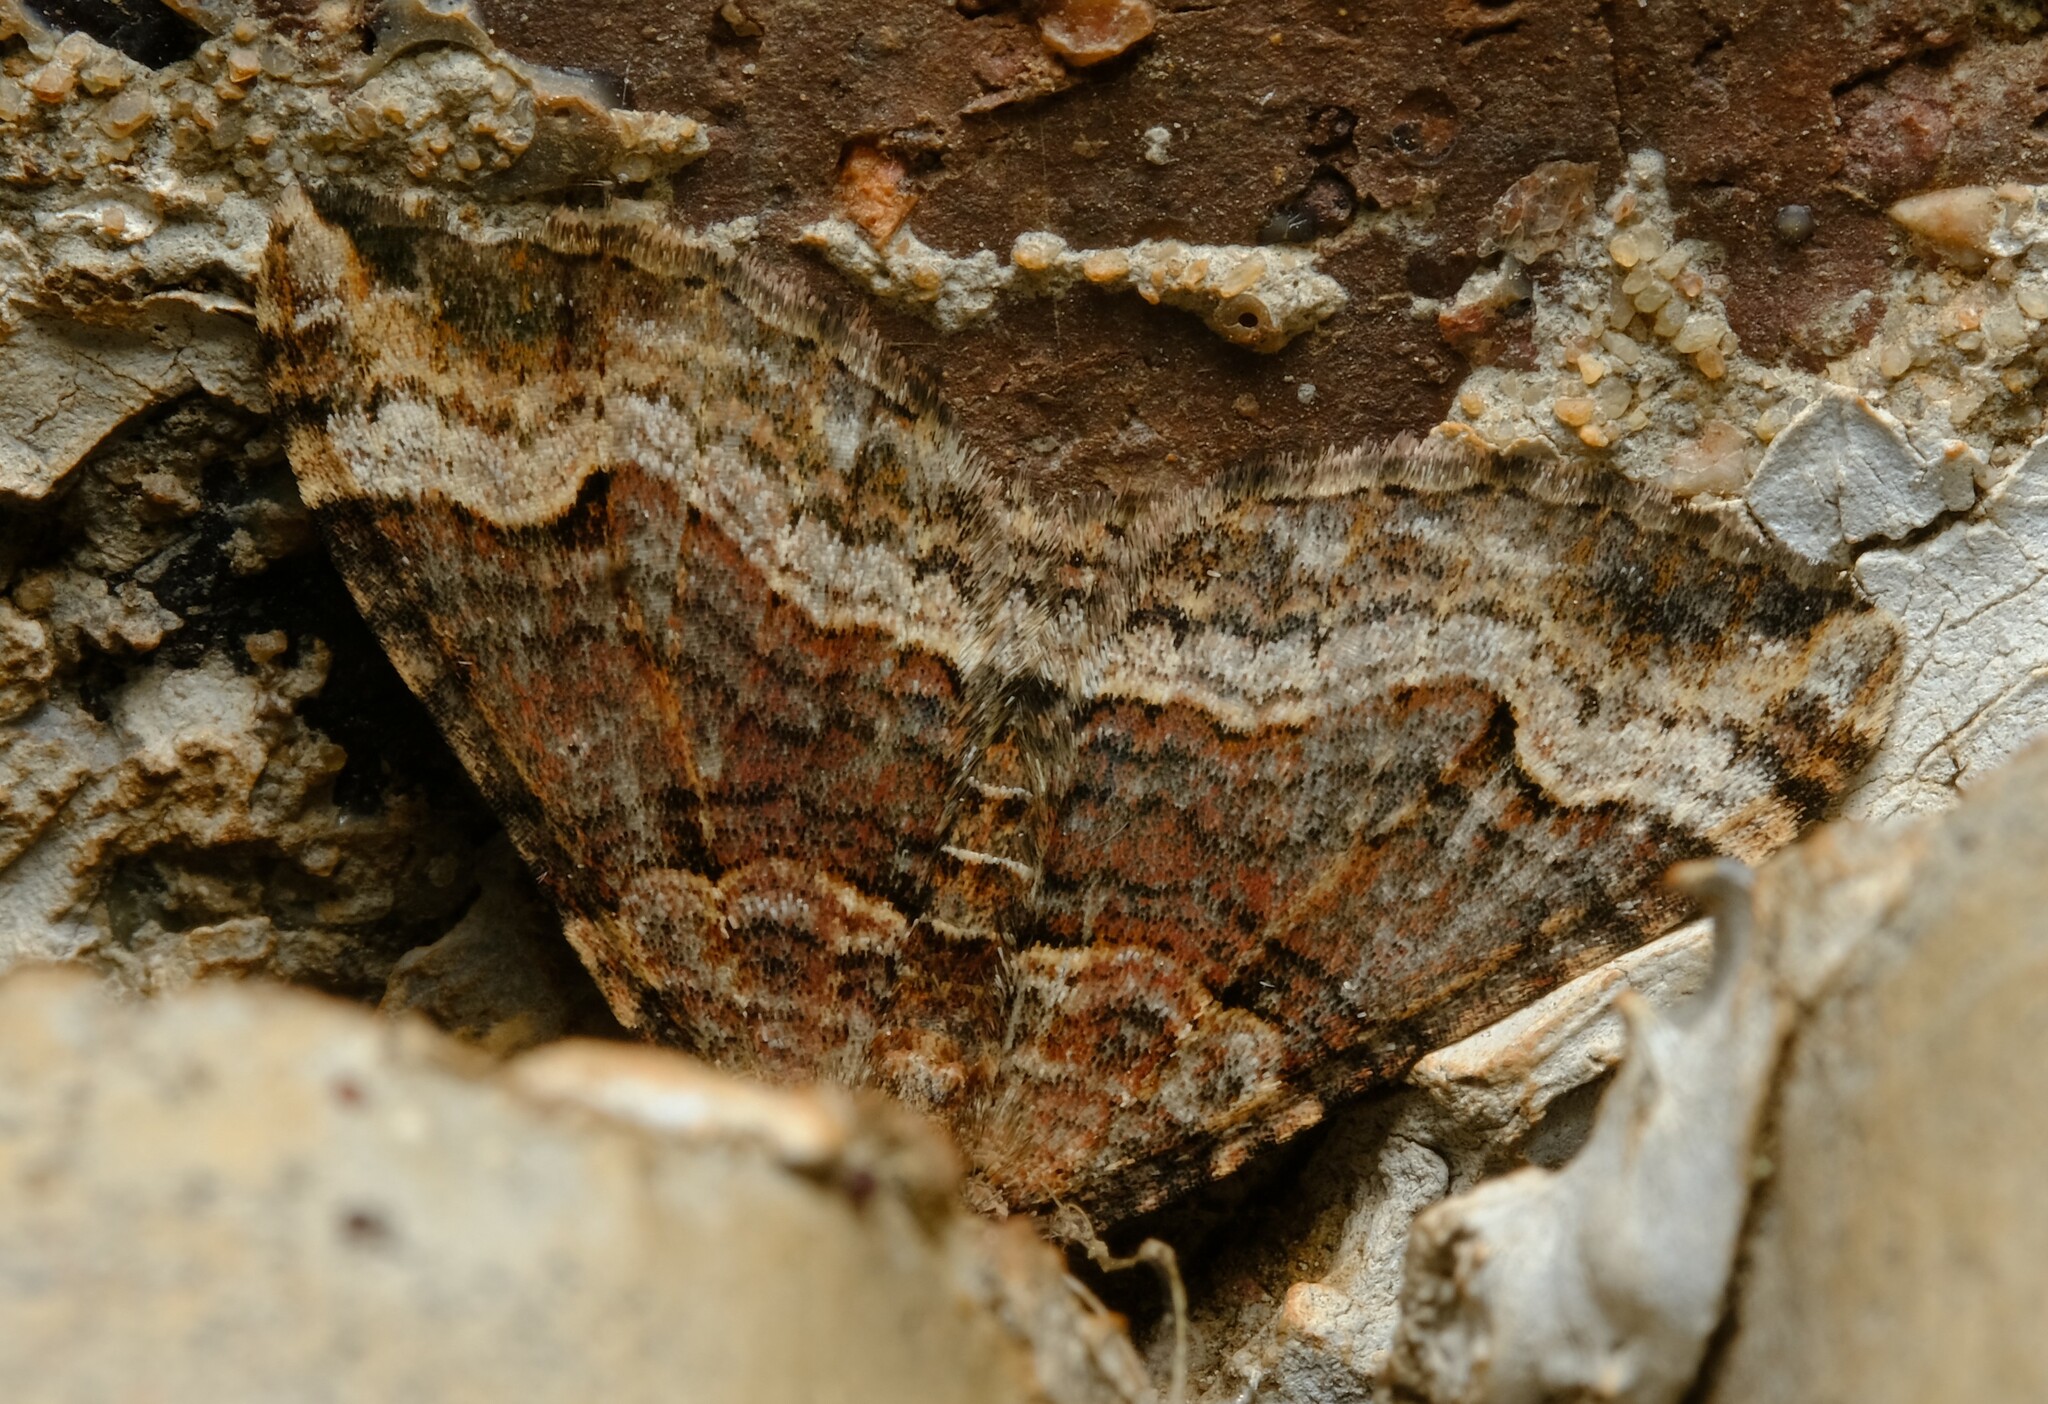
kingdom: Animalia
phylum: Arthropoda
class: Insecta
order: Lepidoptera
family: Geometridae
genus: Epyaxa
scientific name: Epyaxa subidaria
